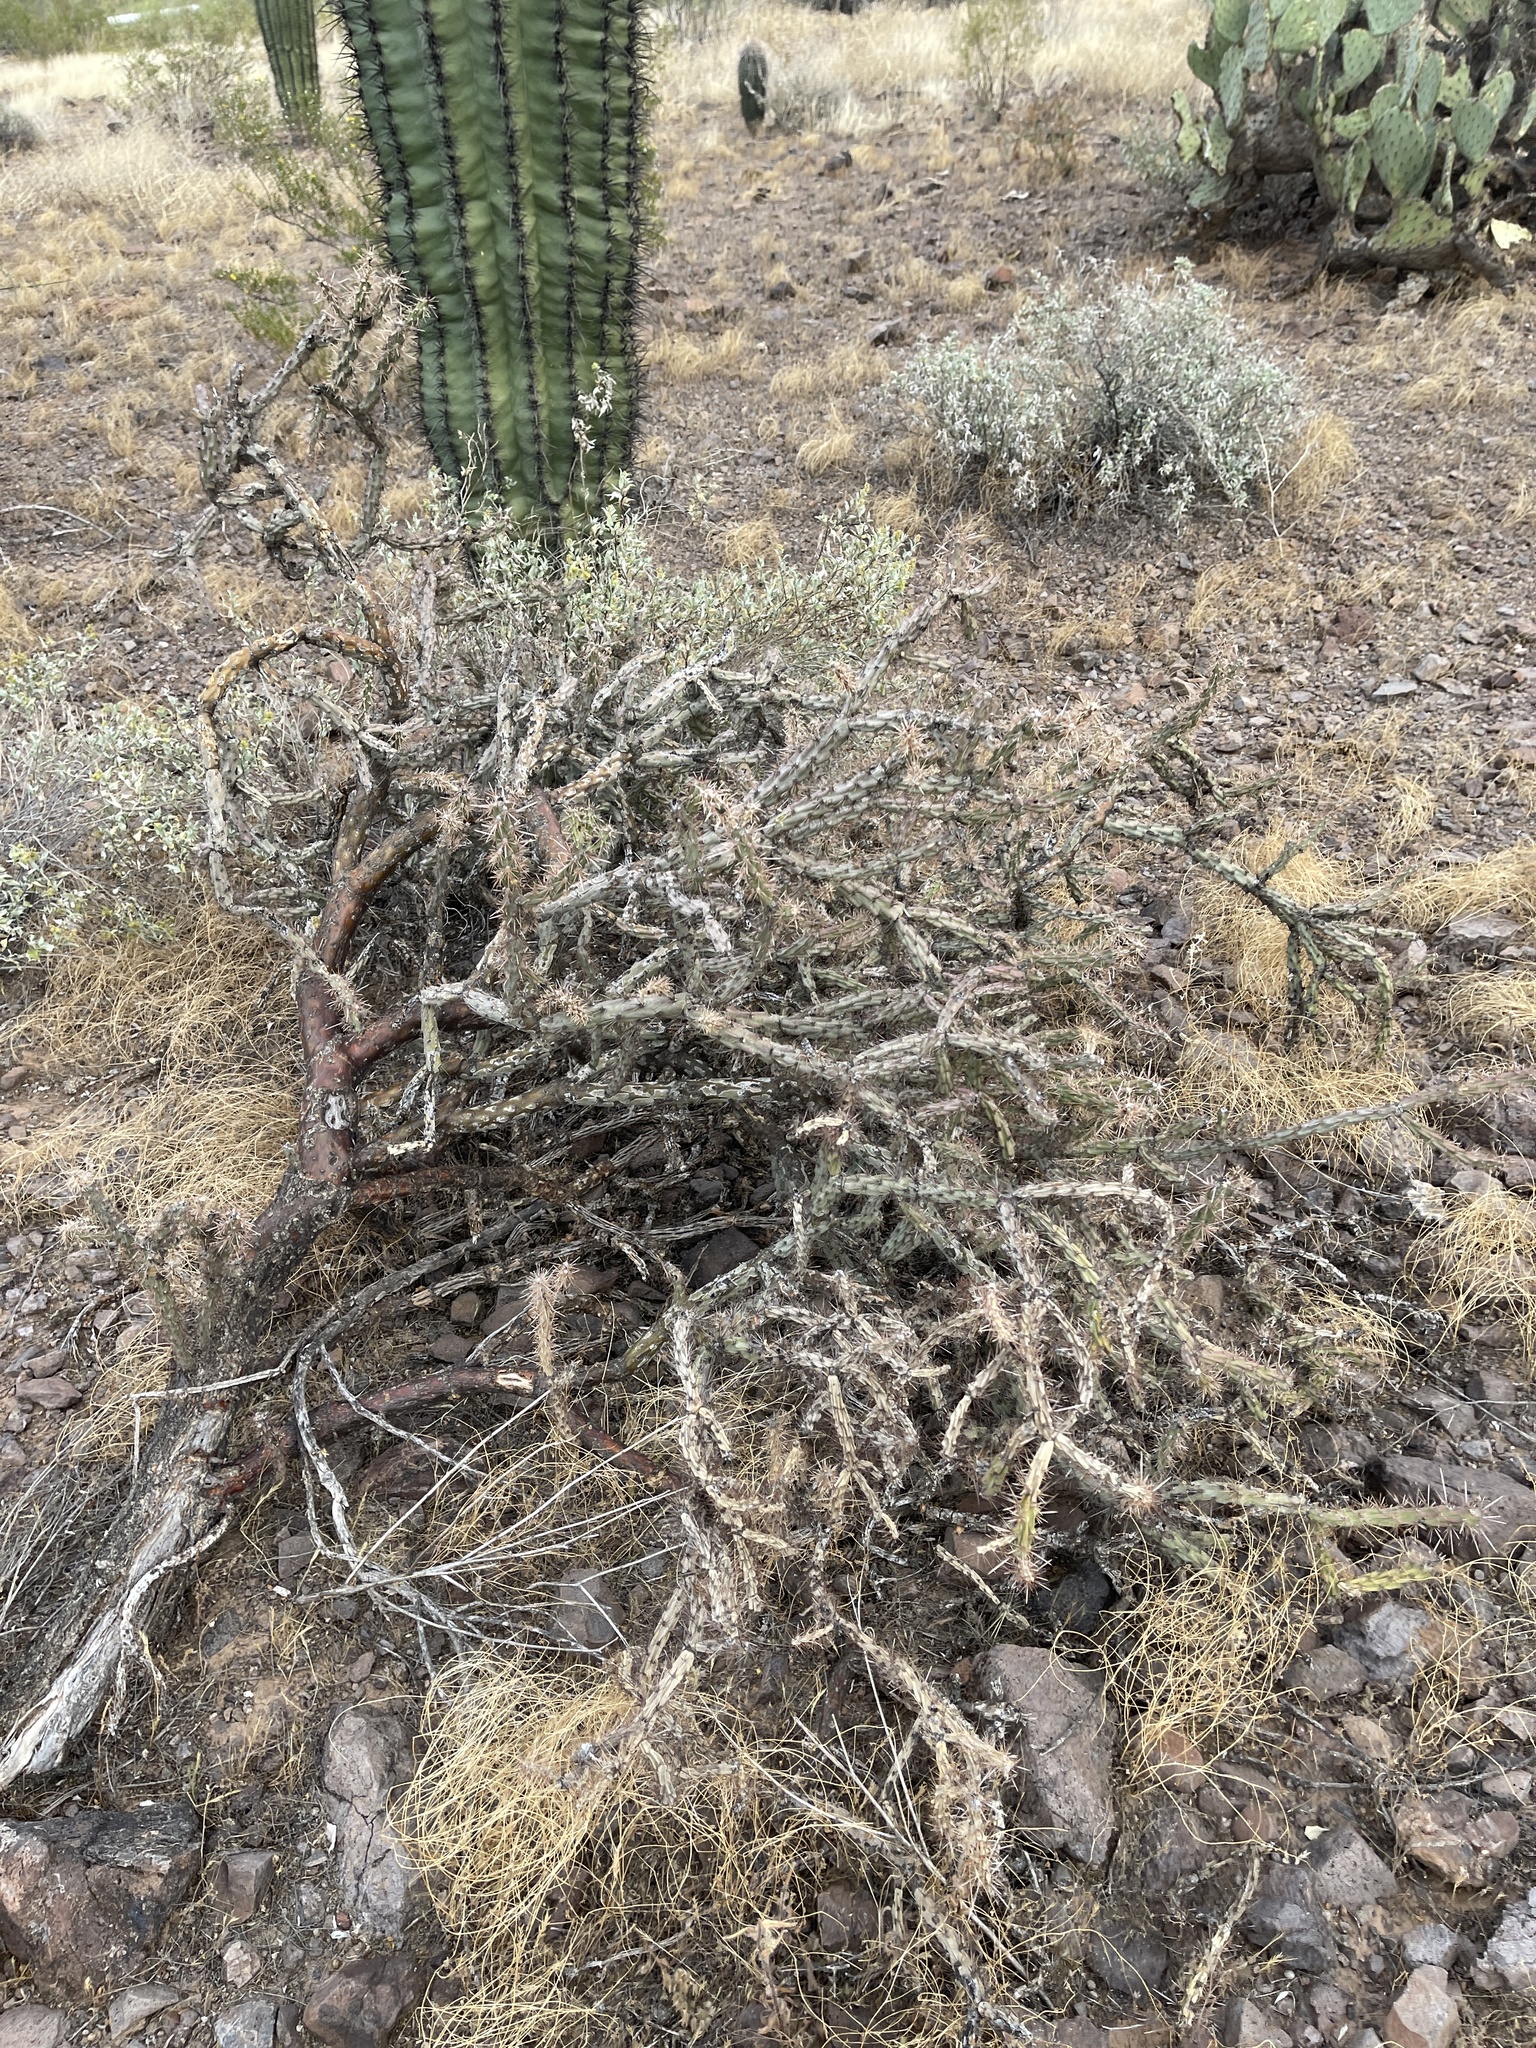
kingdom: Plantae
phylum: Tracheophyta
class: Magnoliopsida
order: Caryophyllales
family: Cactaceae
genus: Cylindropuntia
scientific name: Cylindropuntia acanthocarpa
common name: Buckhorn cholla
